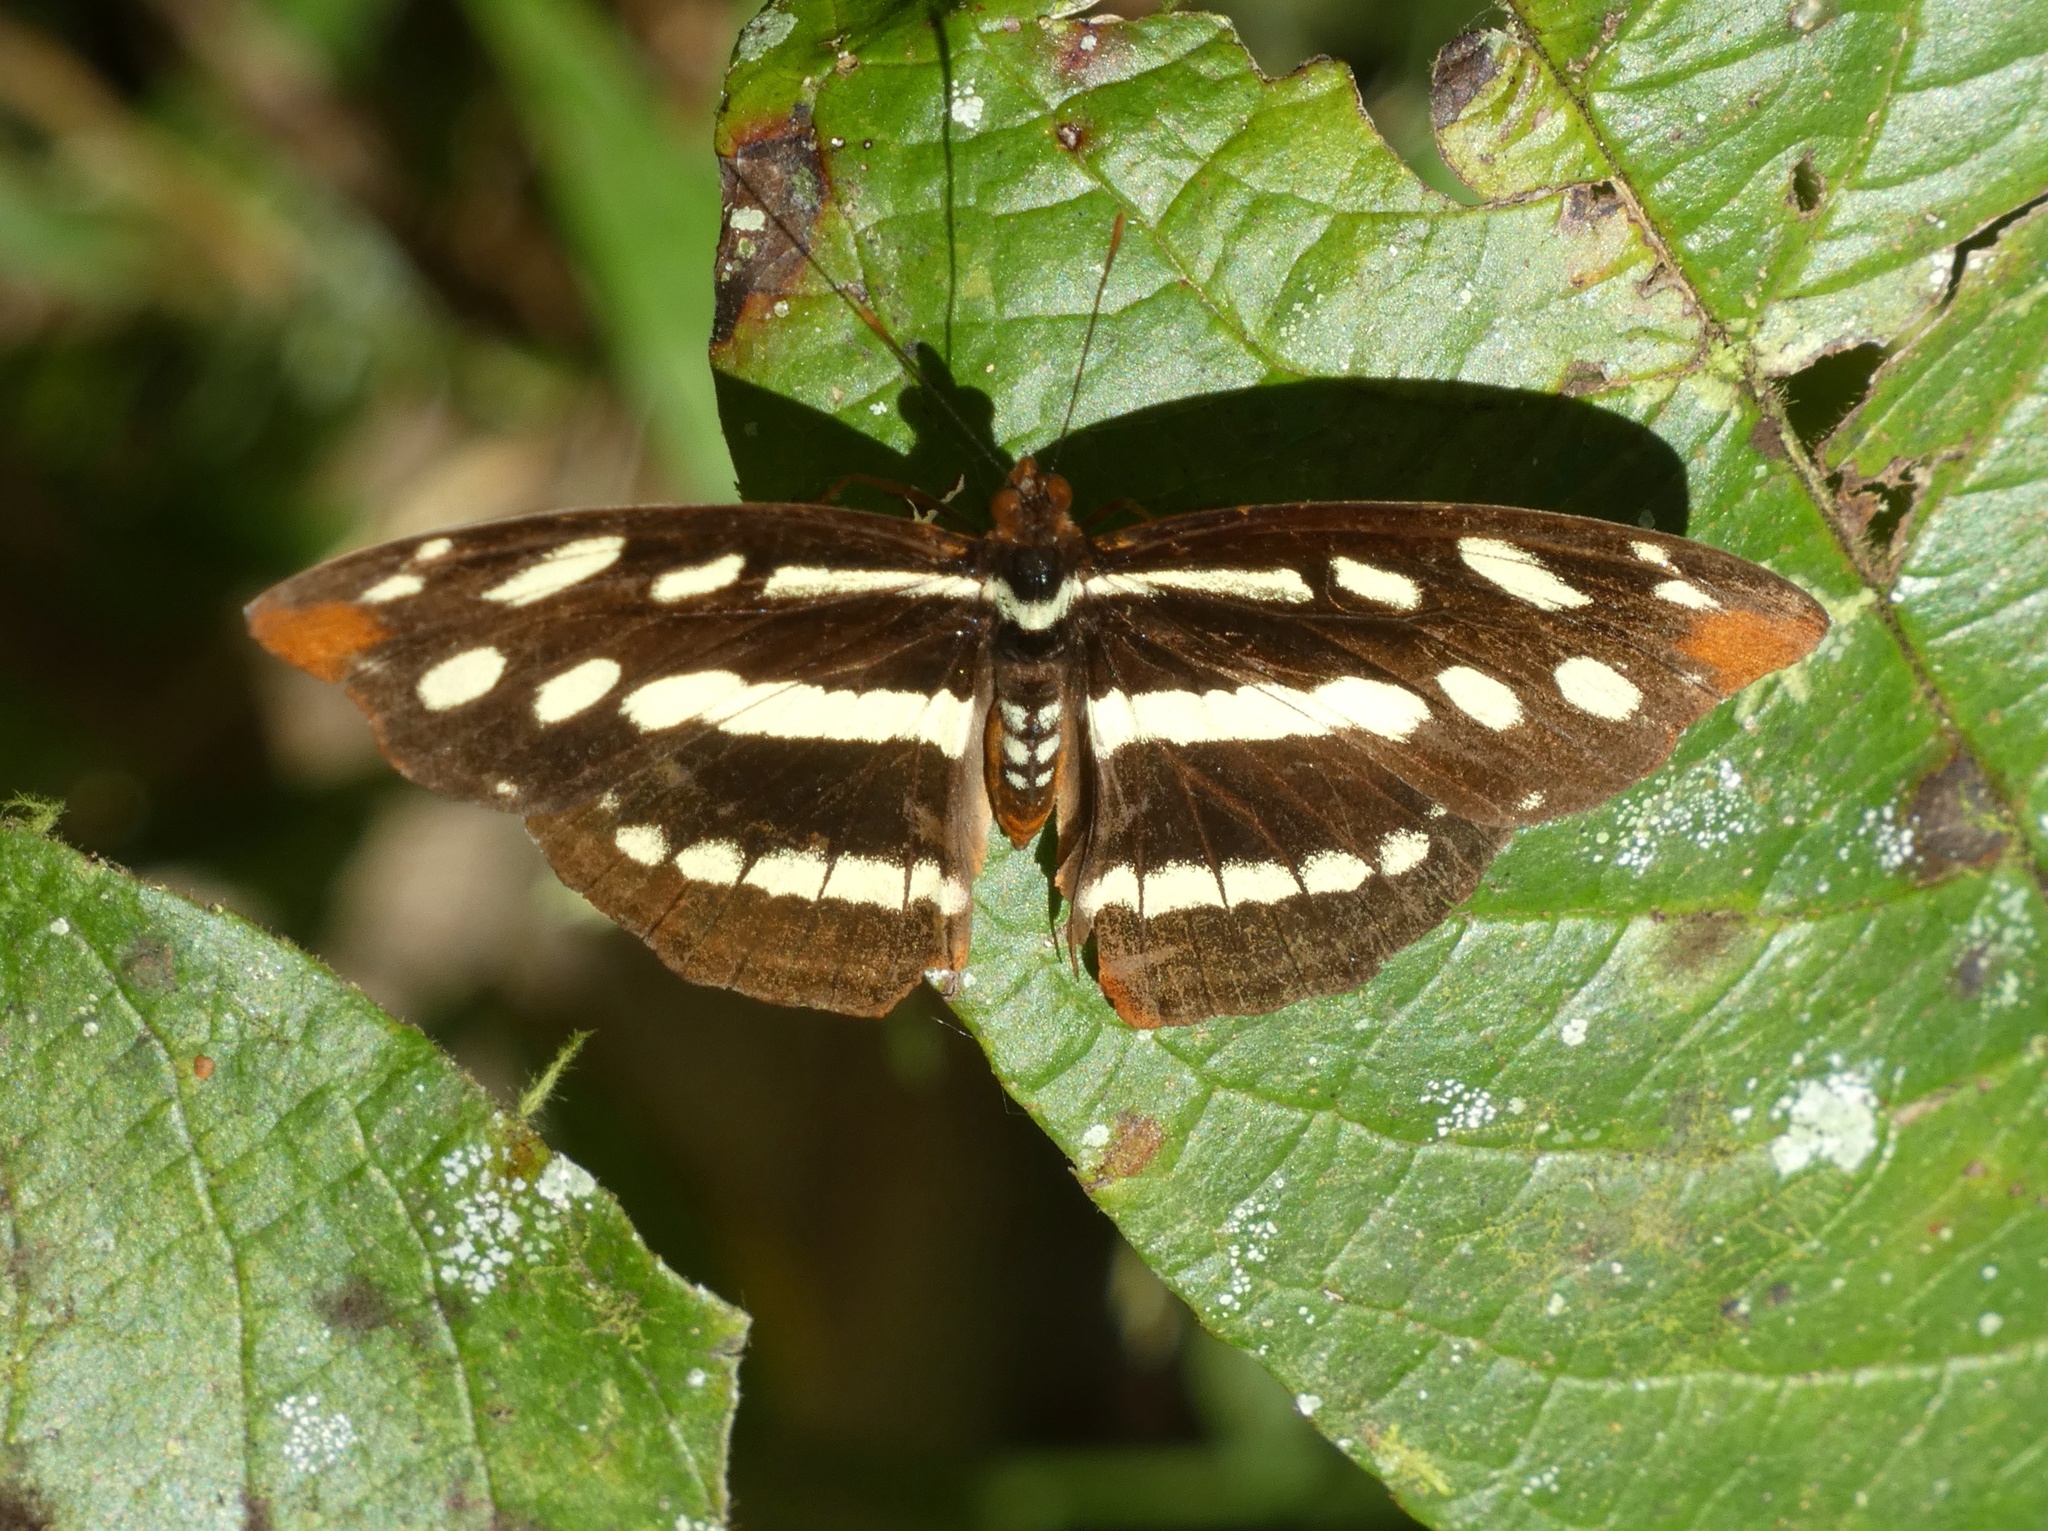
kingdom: Animalia
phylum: Arthropoda
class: Insecta
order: Lepidoptera
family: Nymphalidae
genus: Catonephele
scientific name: Catonephele mexicana
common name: Guatemalan catone
